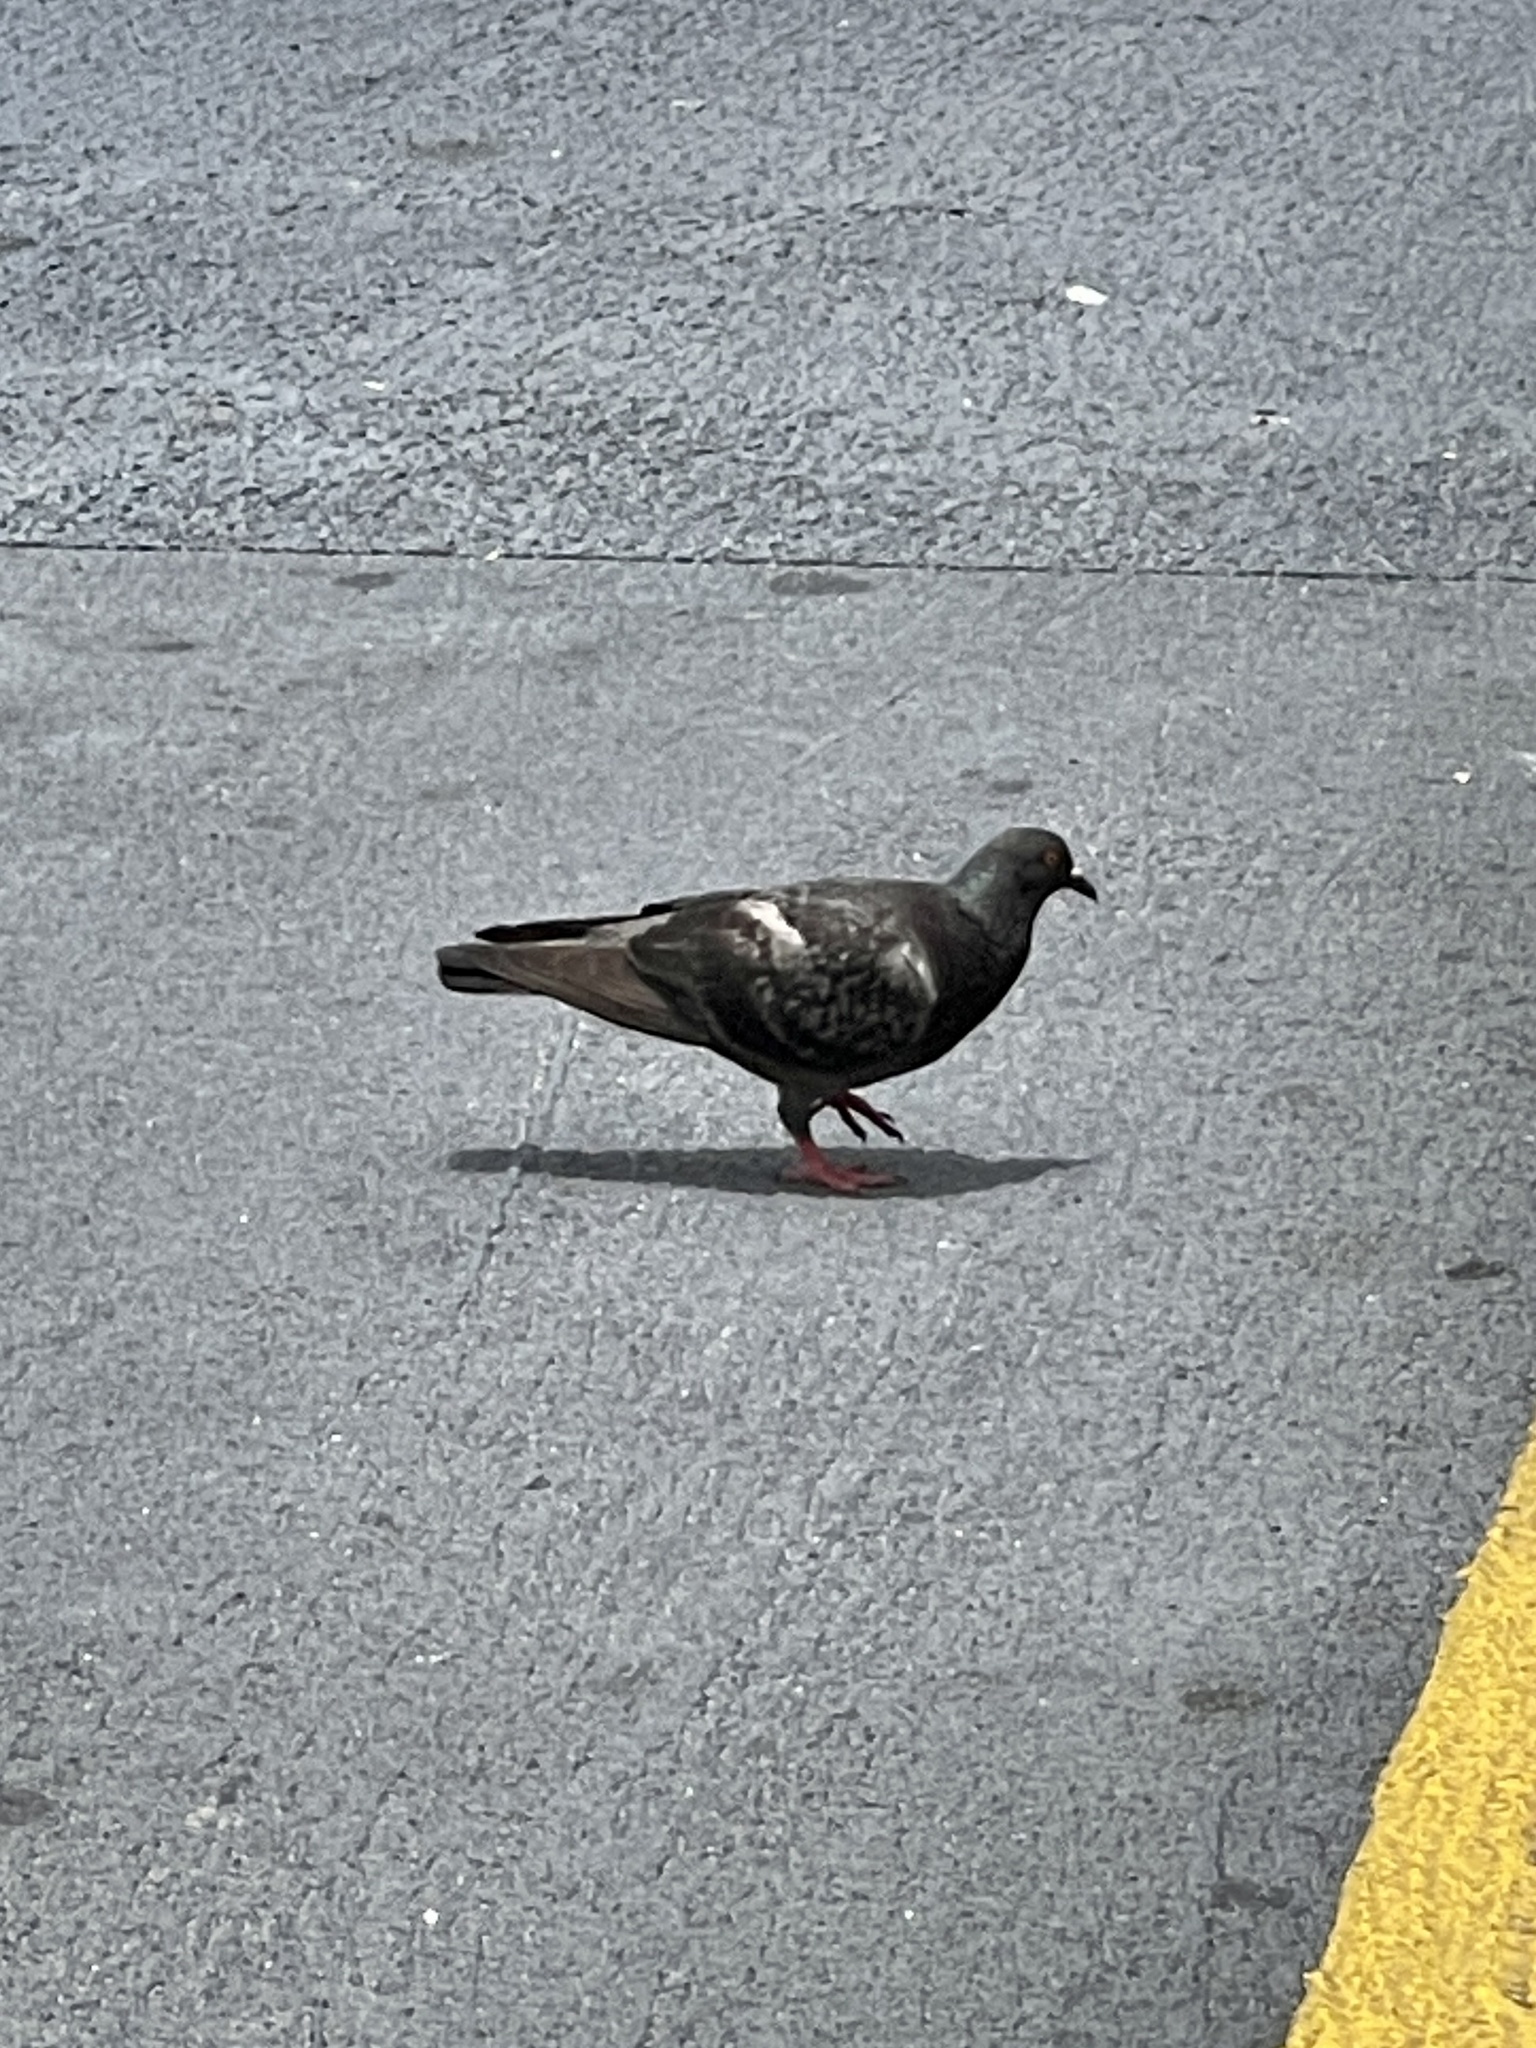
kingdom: Animalia
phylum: Chordata
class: Aves
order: Columbiformes
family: Columbidae
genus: Columba
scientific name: Columba livia
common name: Rock pigeon
